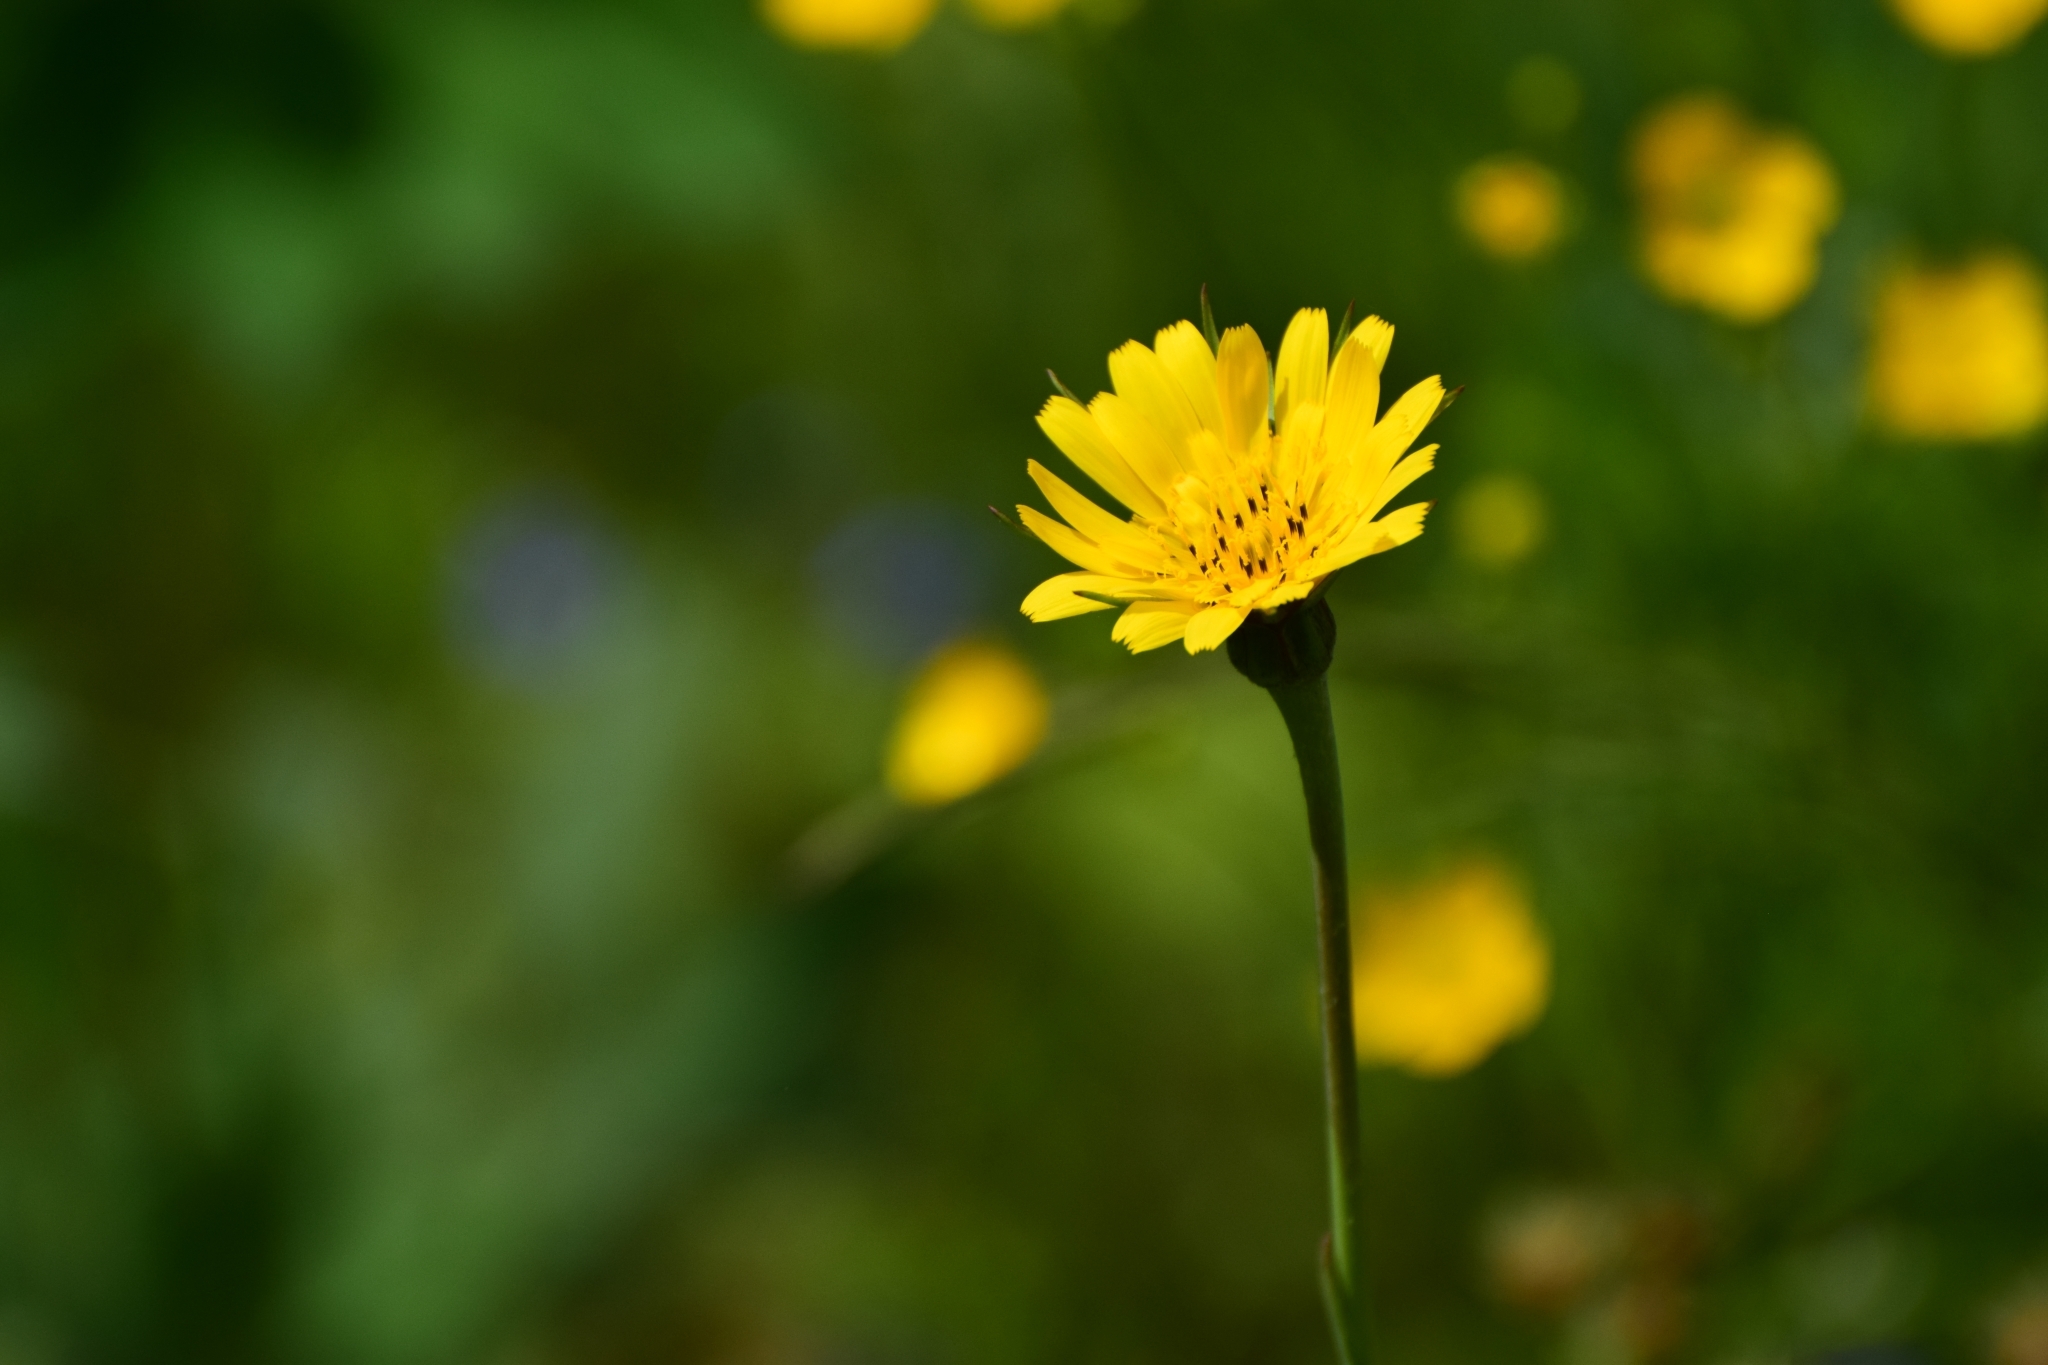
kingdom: Plantae
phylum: Tracheophyta
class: Magnoliopsida
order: Asterales
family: Asteraceae
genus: Tragopogon
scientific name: Tragopogon pratensis
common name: Goat's-beard
